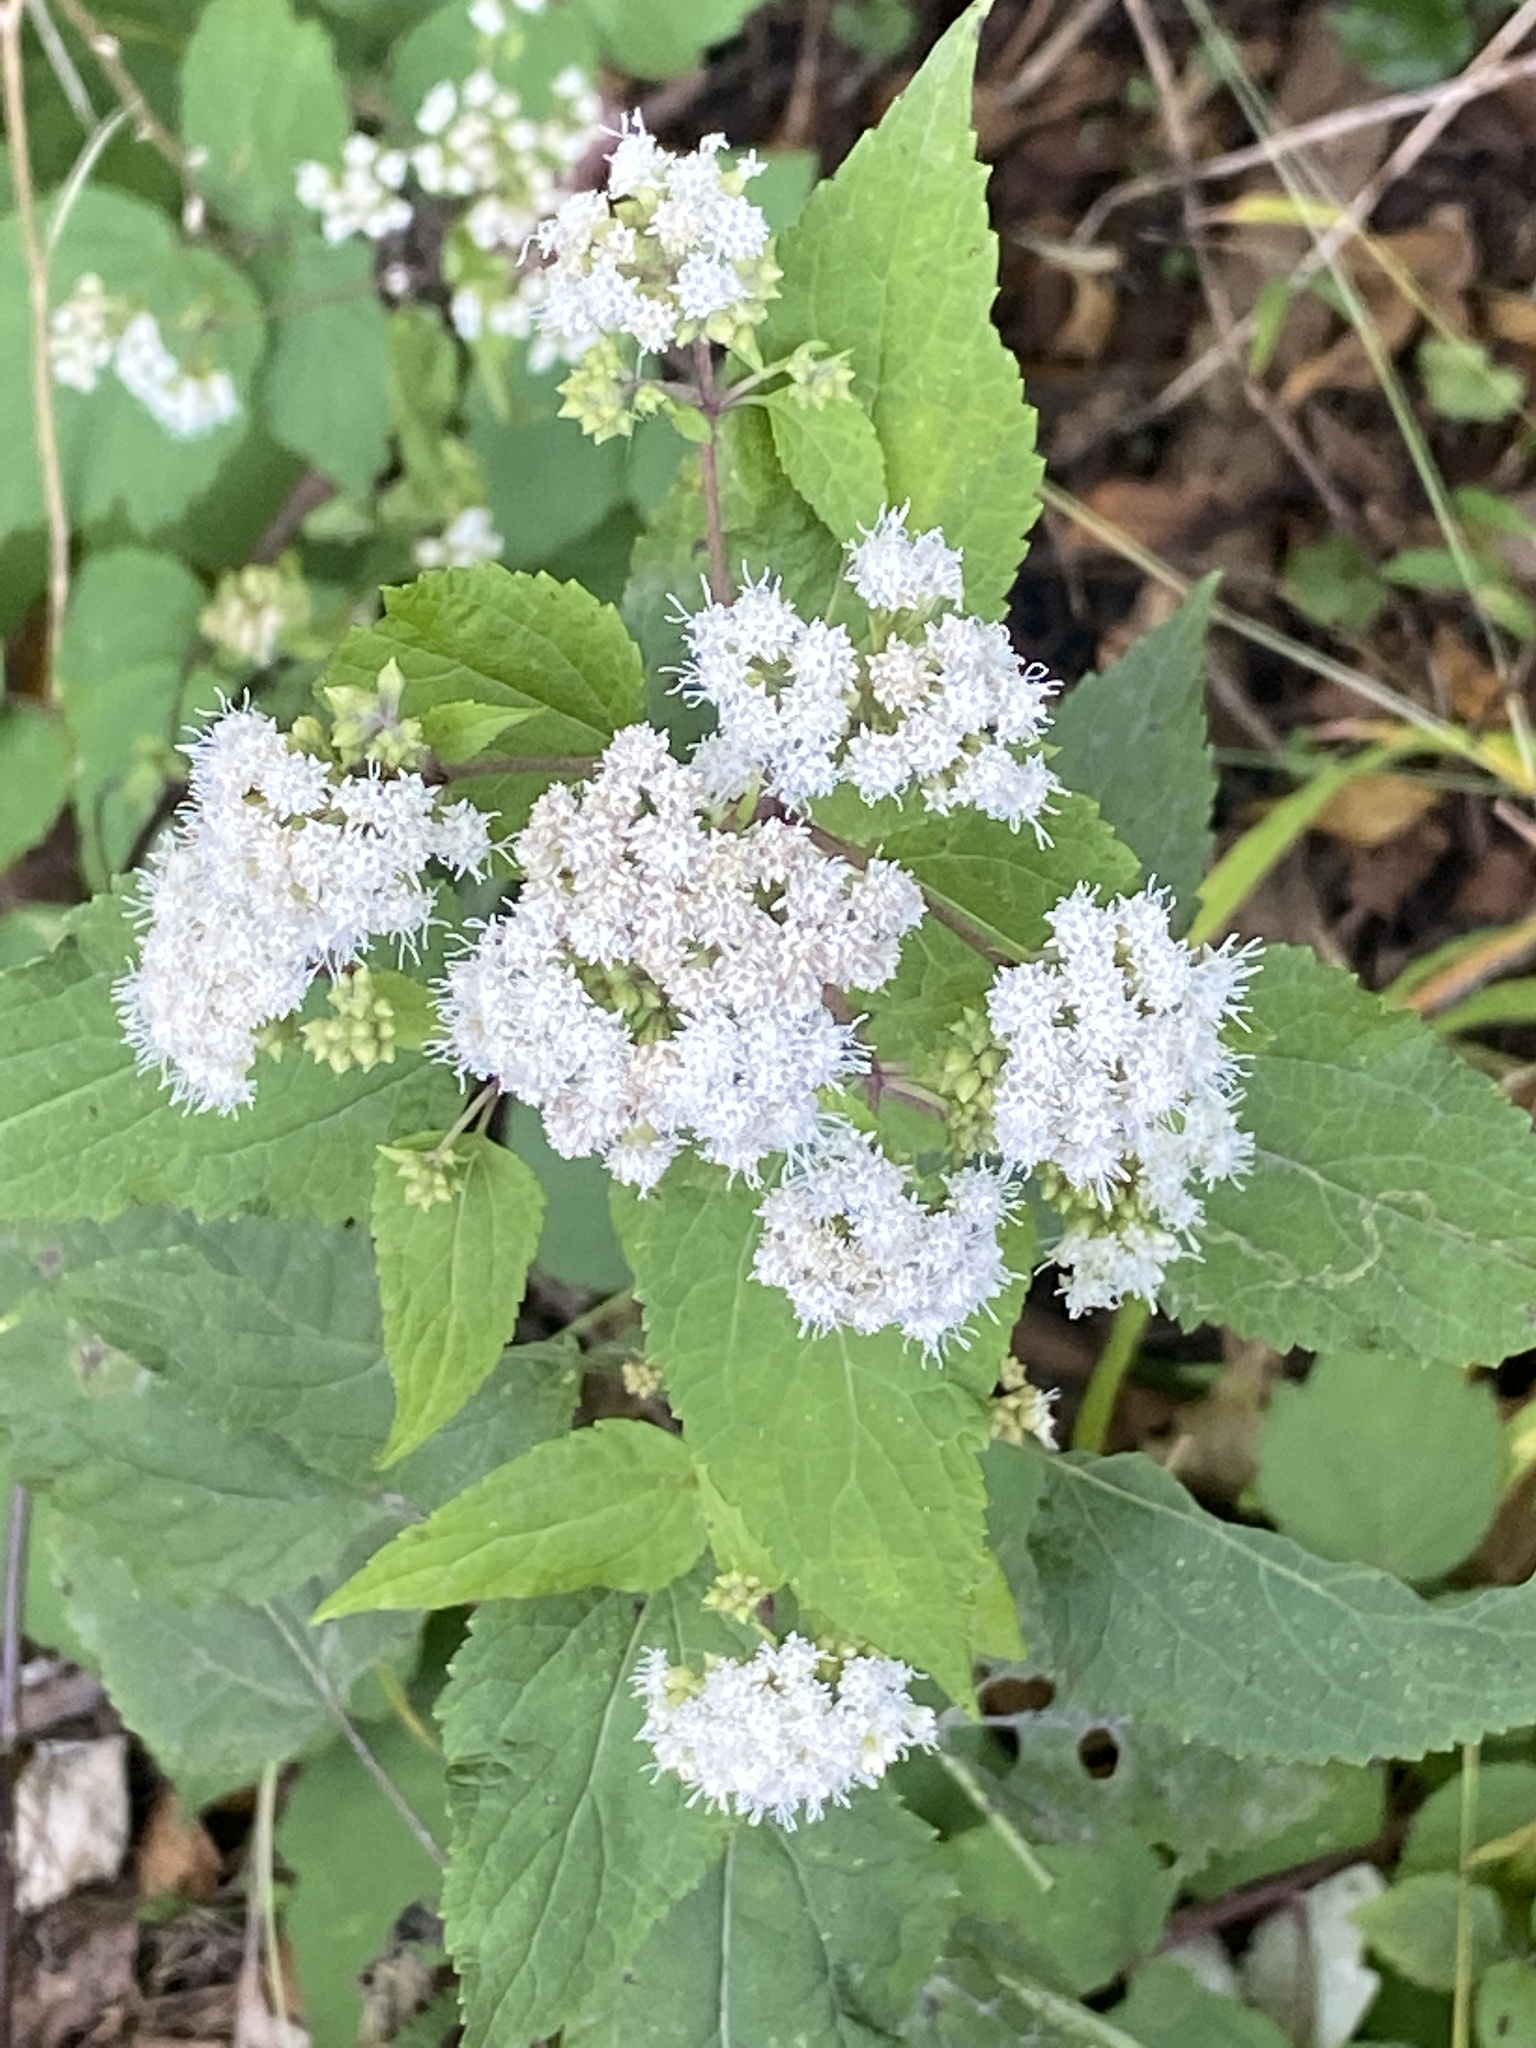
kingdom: Plantae
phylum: Tracheophyta
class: Magnoliopsida
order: Asterales
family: Asteraceae
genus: Ageratina
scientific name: Ageratina altissima
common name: White snakeroot
